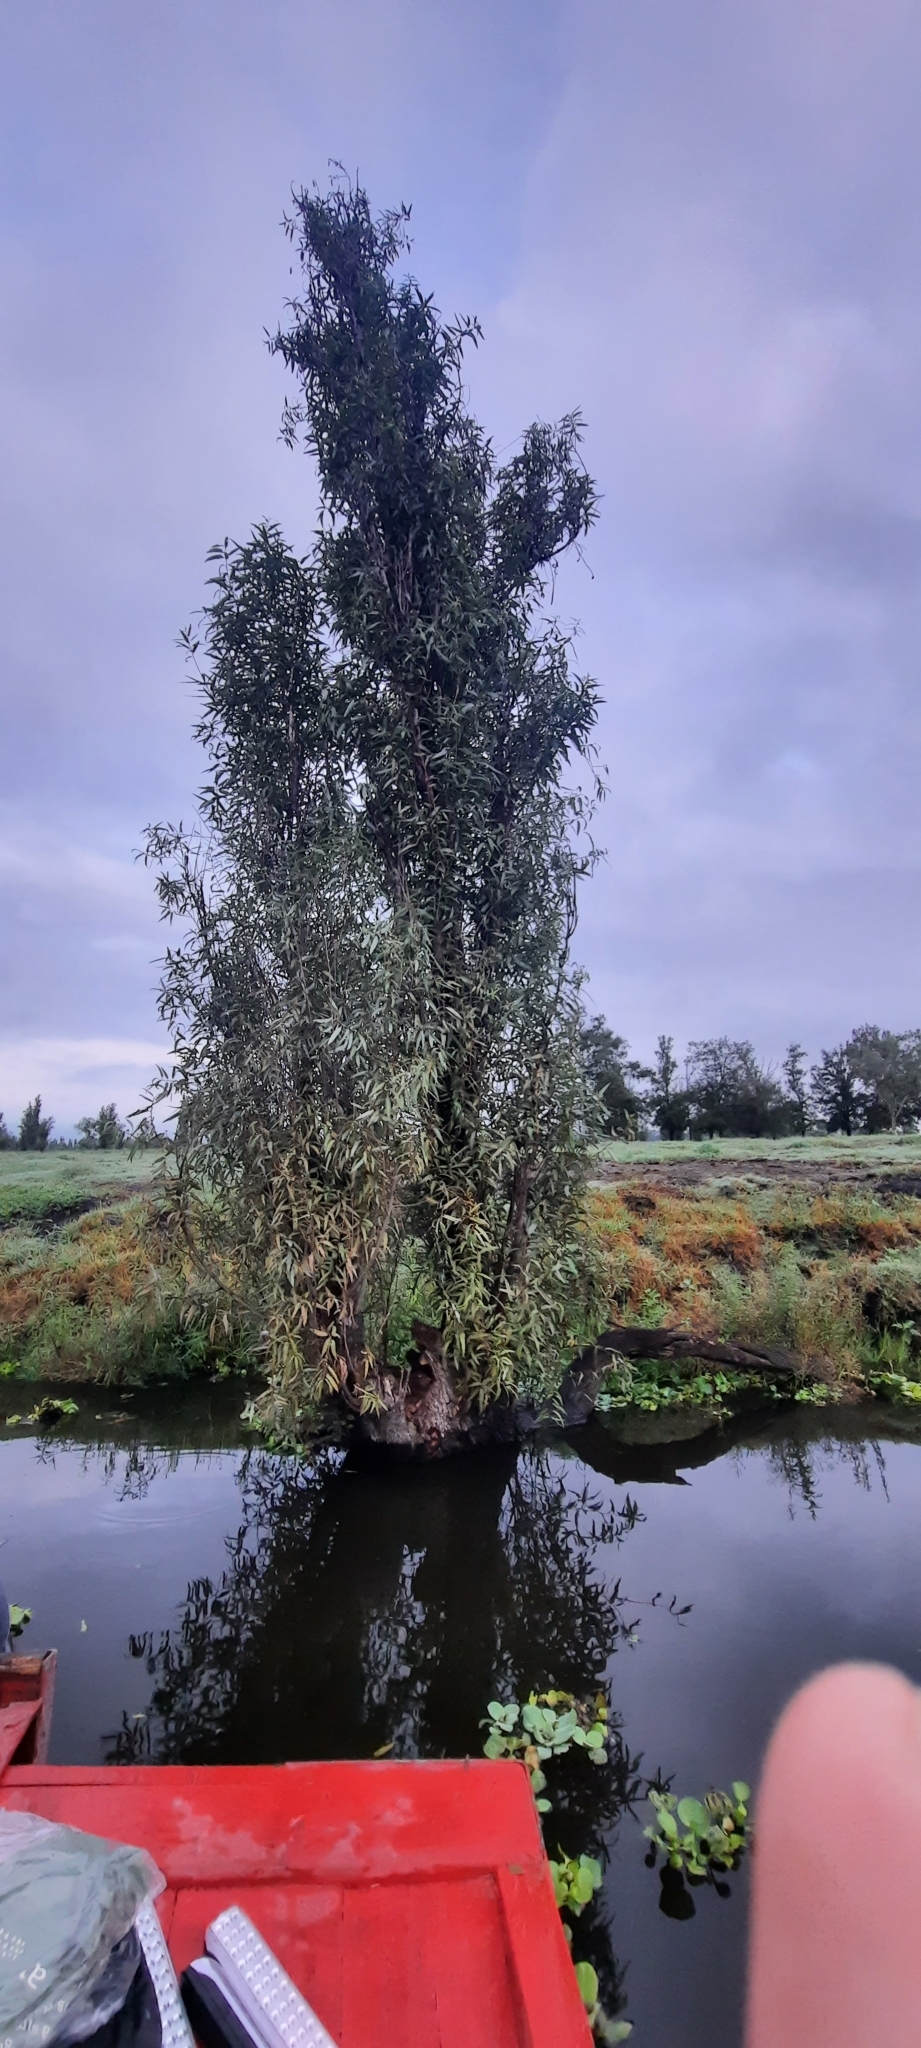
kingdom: Plantae
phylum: Tracheophyta
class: Magnoliopsida
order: Malpighiales
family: Salicaceae
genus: Salix
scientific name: Salix bonplandiana
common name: Bonpland’s willow
